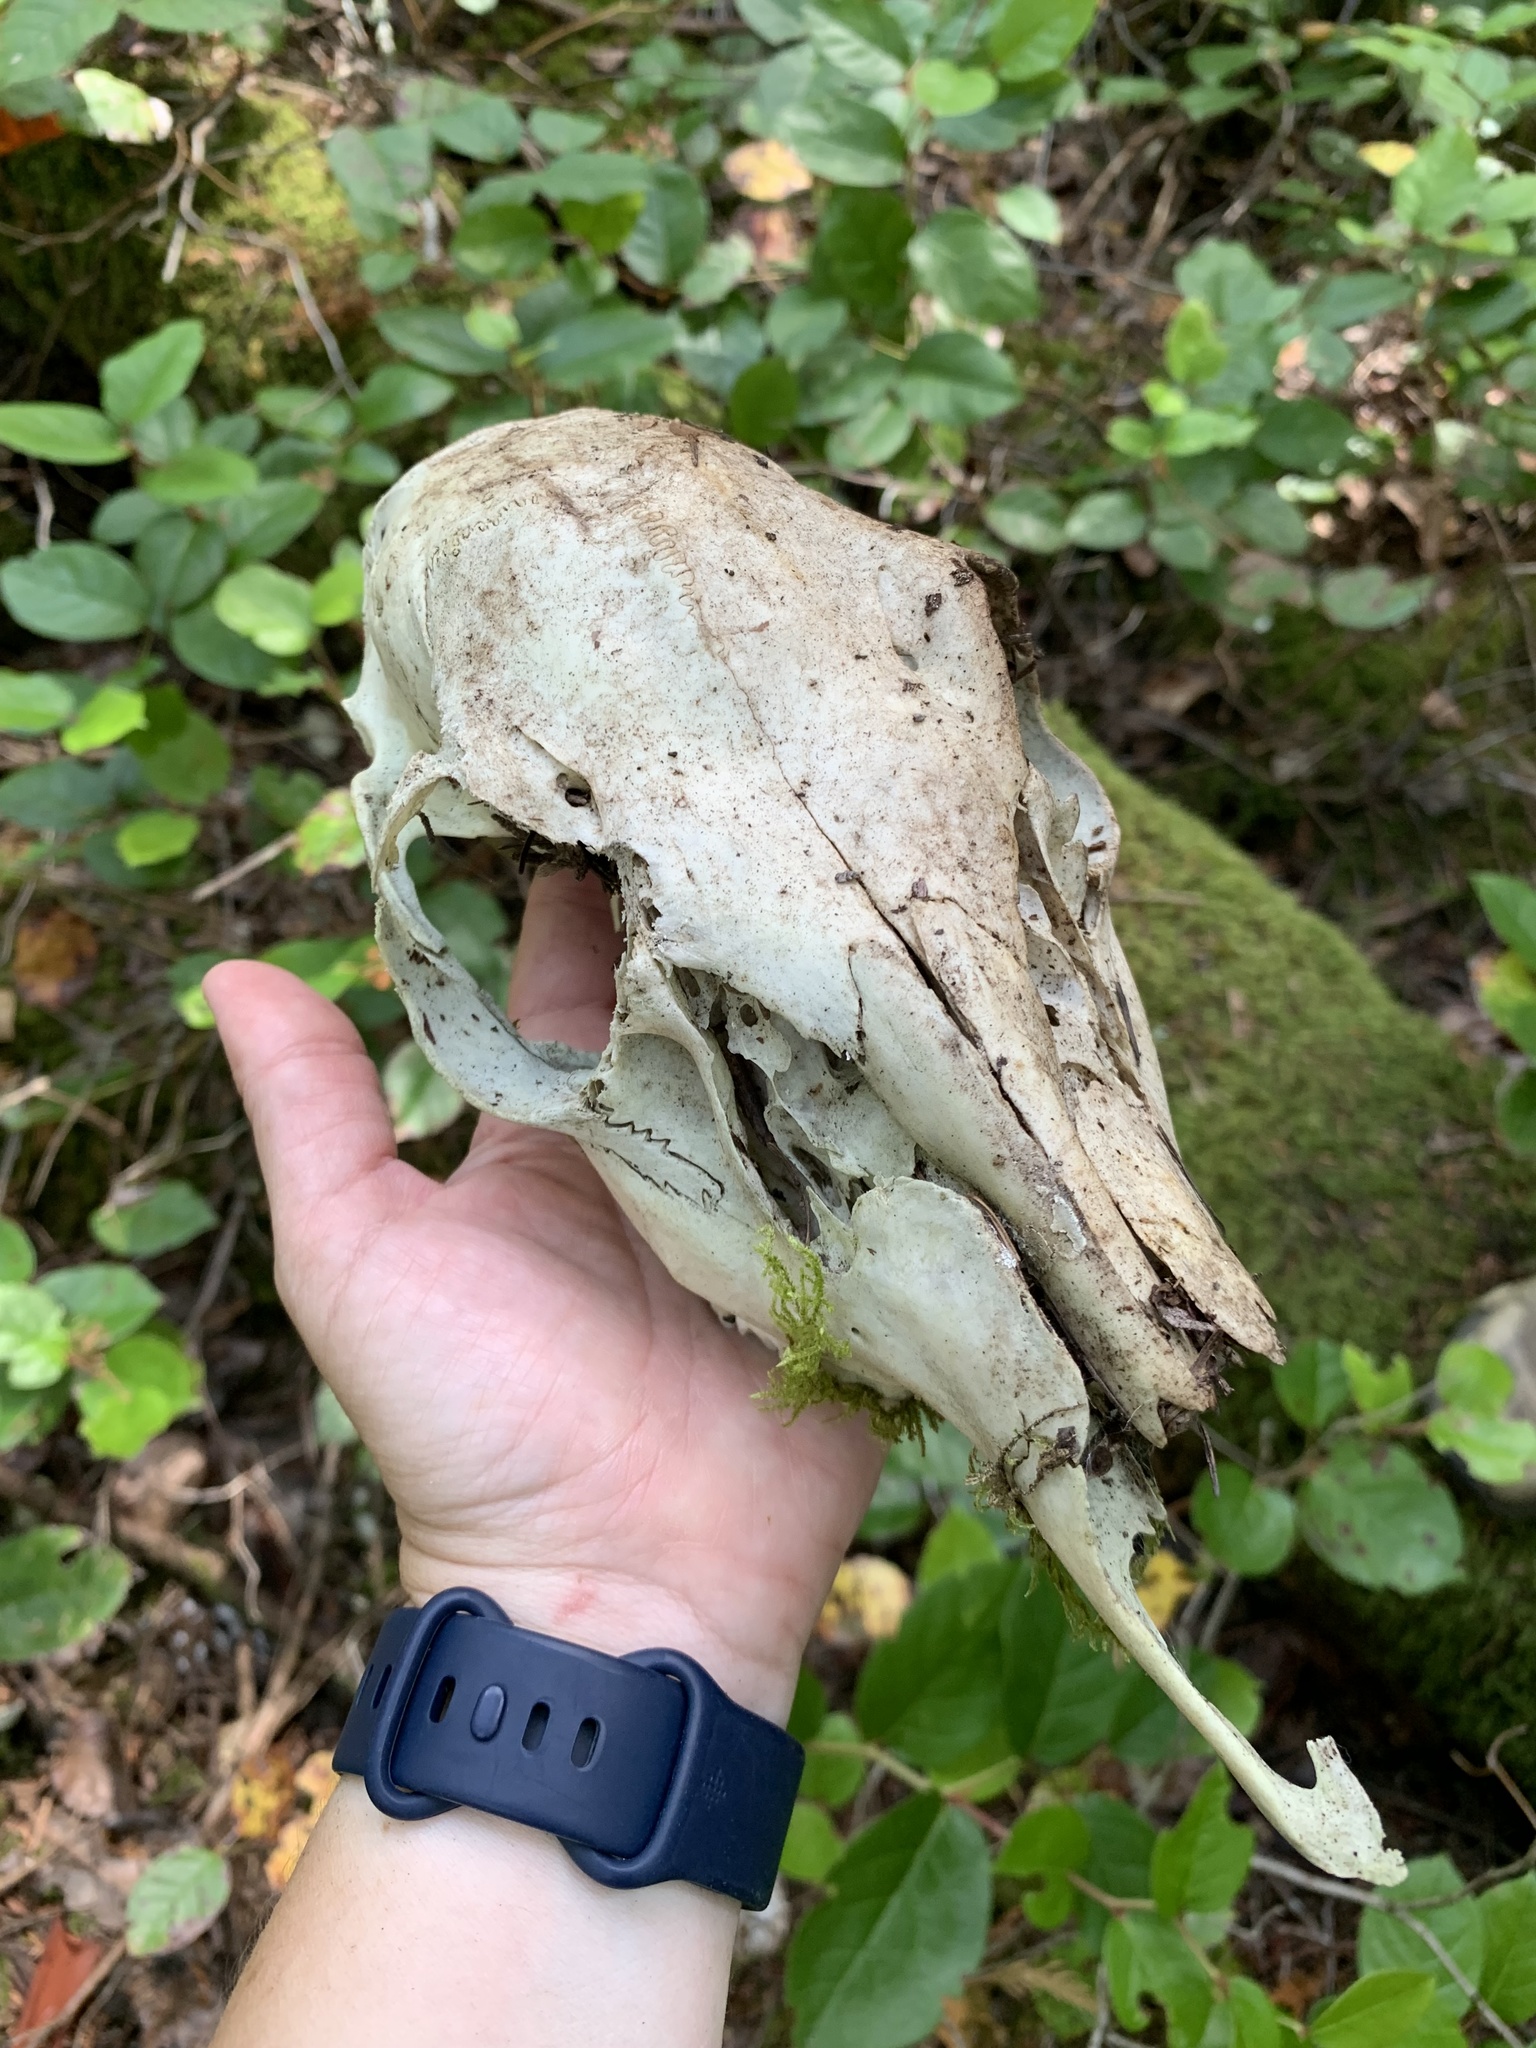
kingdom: Animalia
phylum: Chordata
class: Mammalia
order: Artiodactyla
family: Cervidae
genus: Odocoileus
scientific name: Odocoileus hemionus
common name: Mule deer
